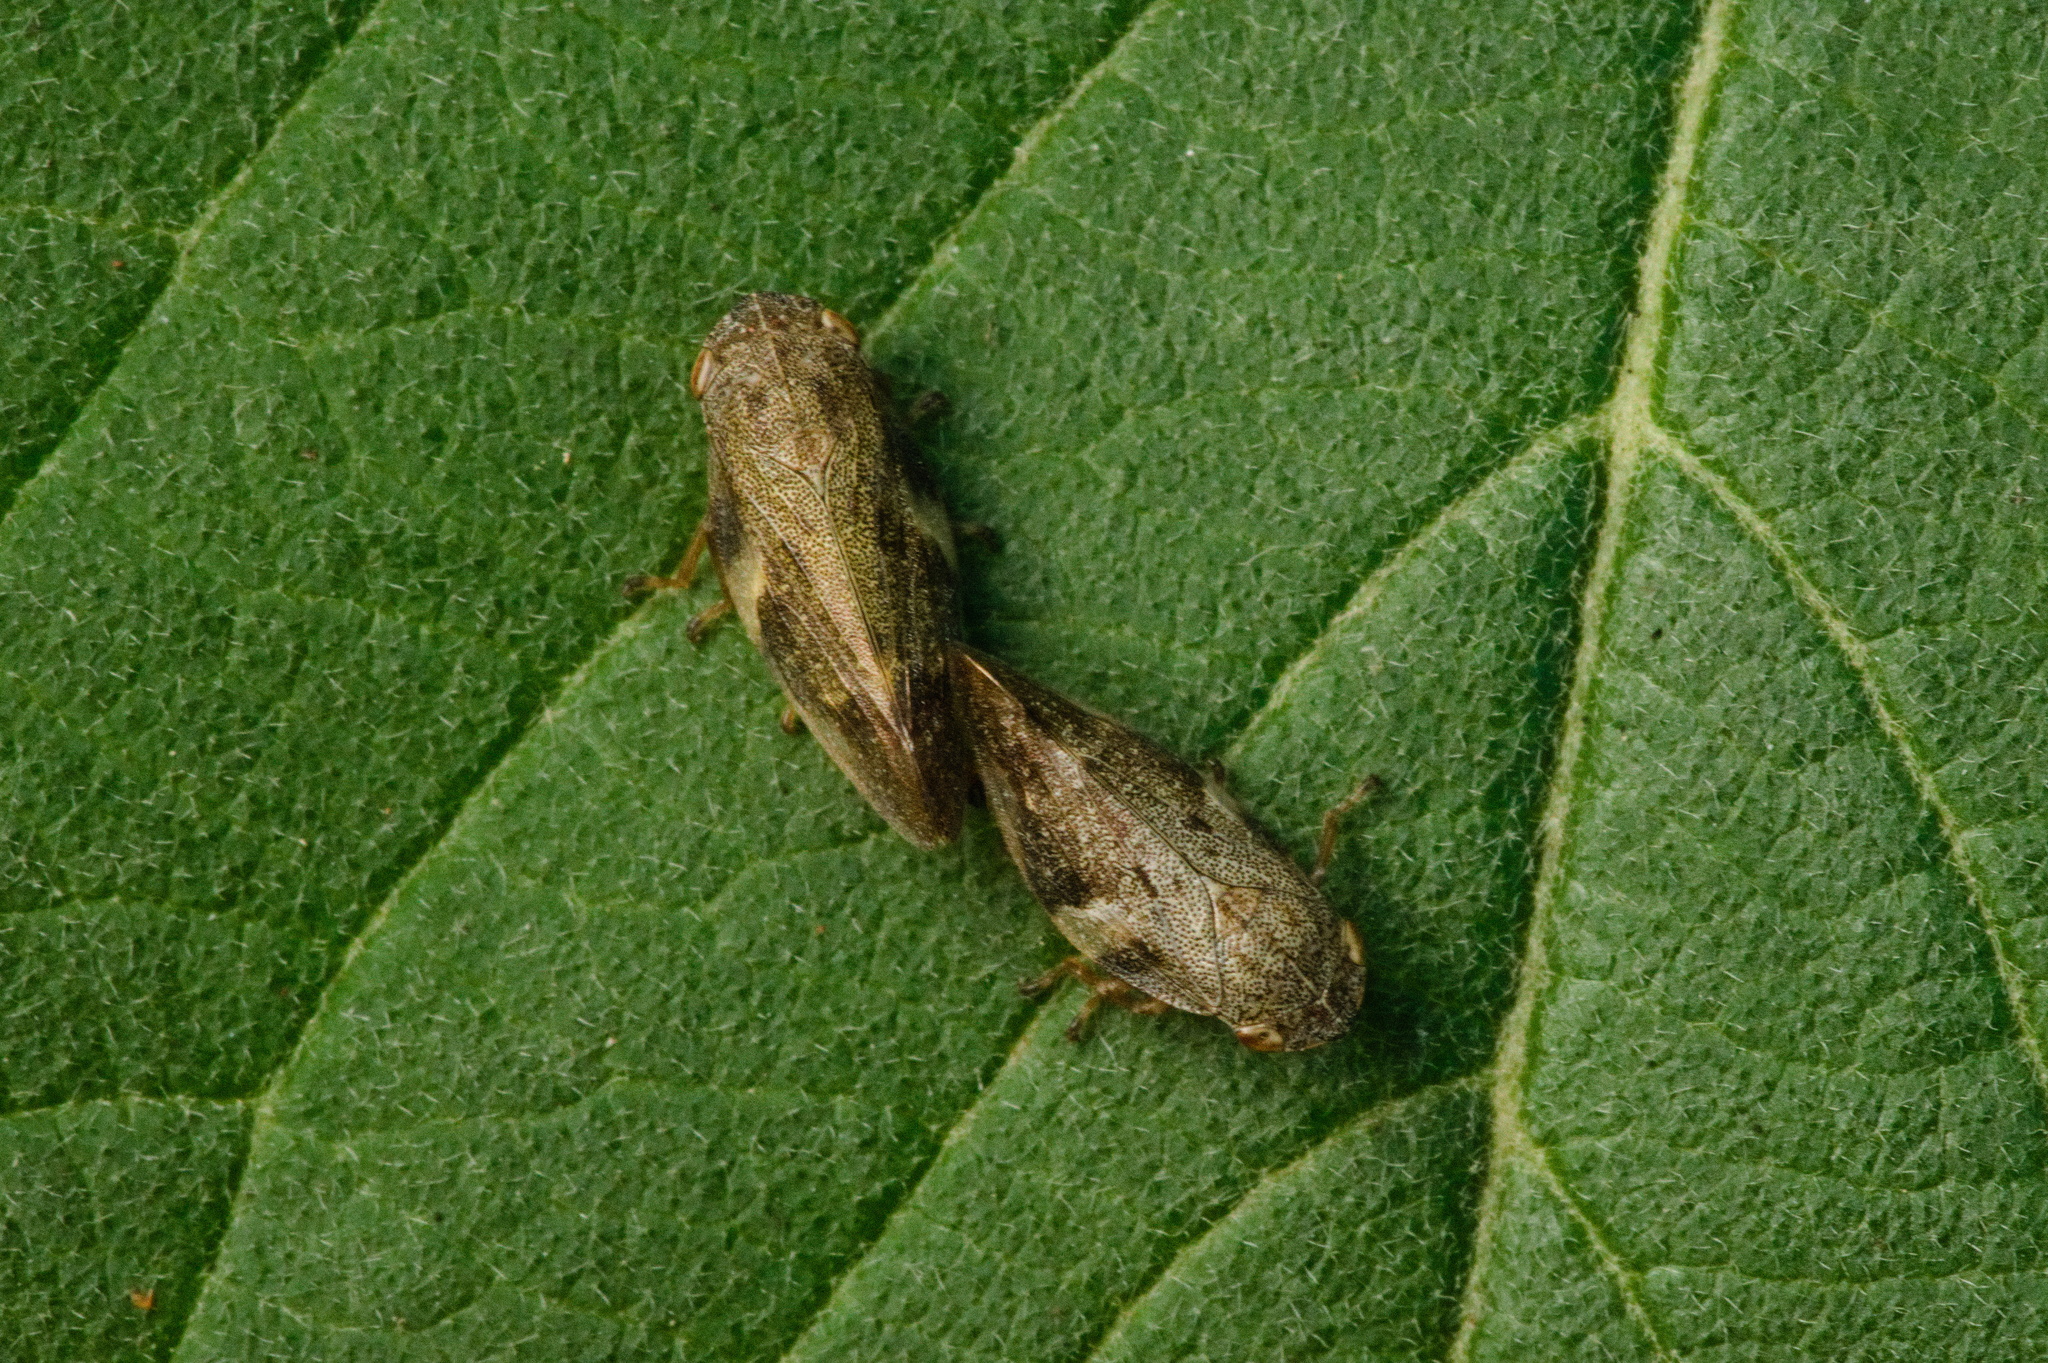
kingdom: Animalia
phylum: Arthropoda
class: Insecta
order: Hemiptera
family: Aphrophoridae
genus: Aphrophora
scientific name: Aphrophora alni
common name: European alder spittlebug
